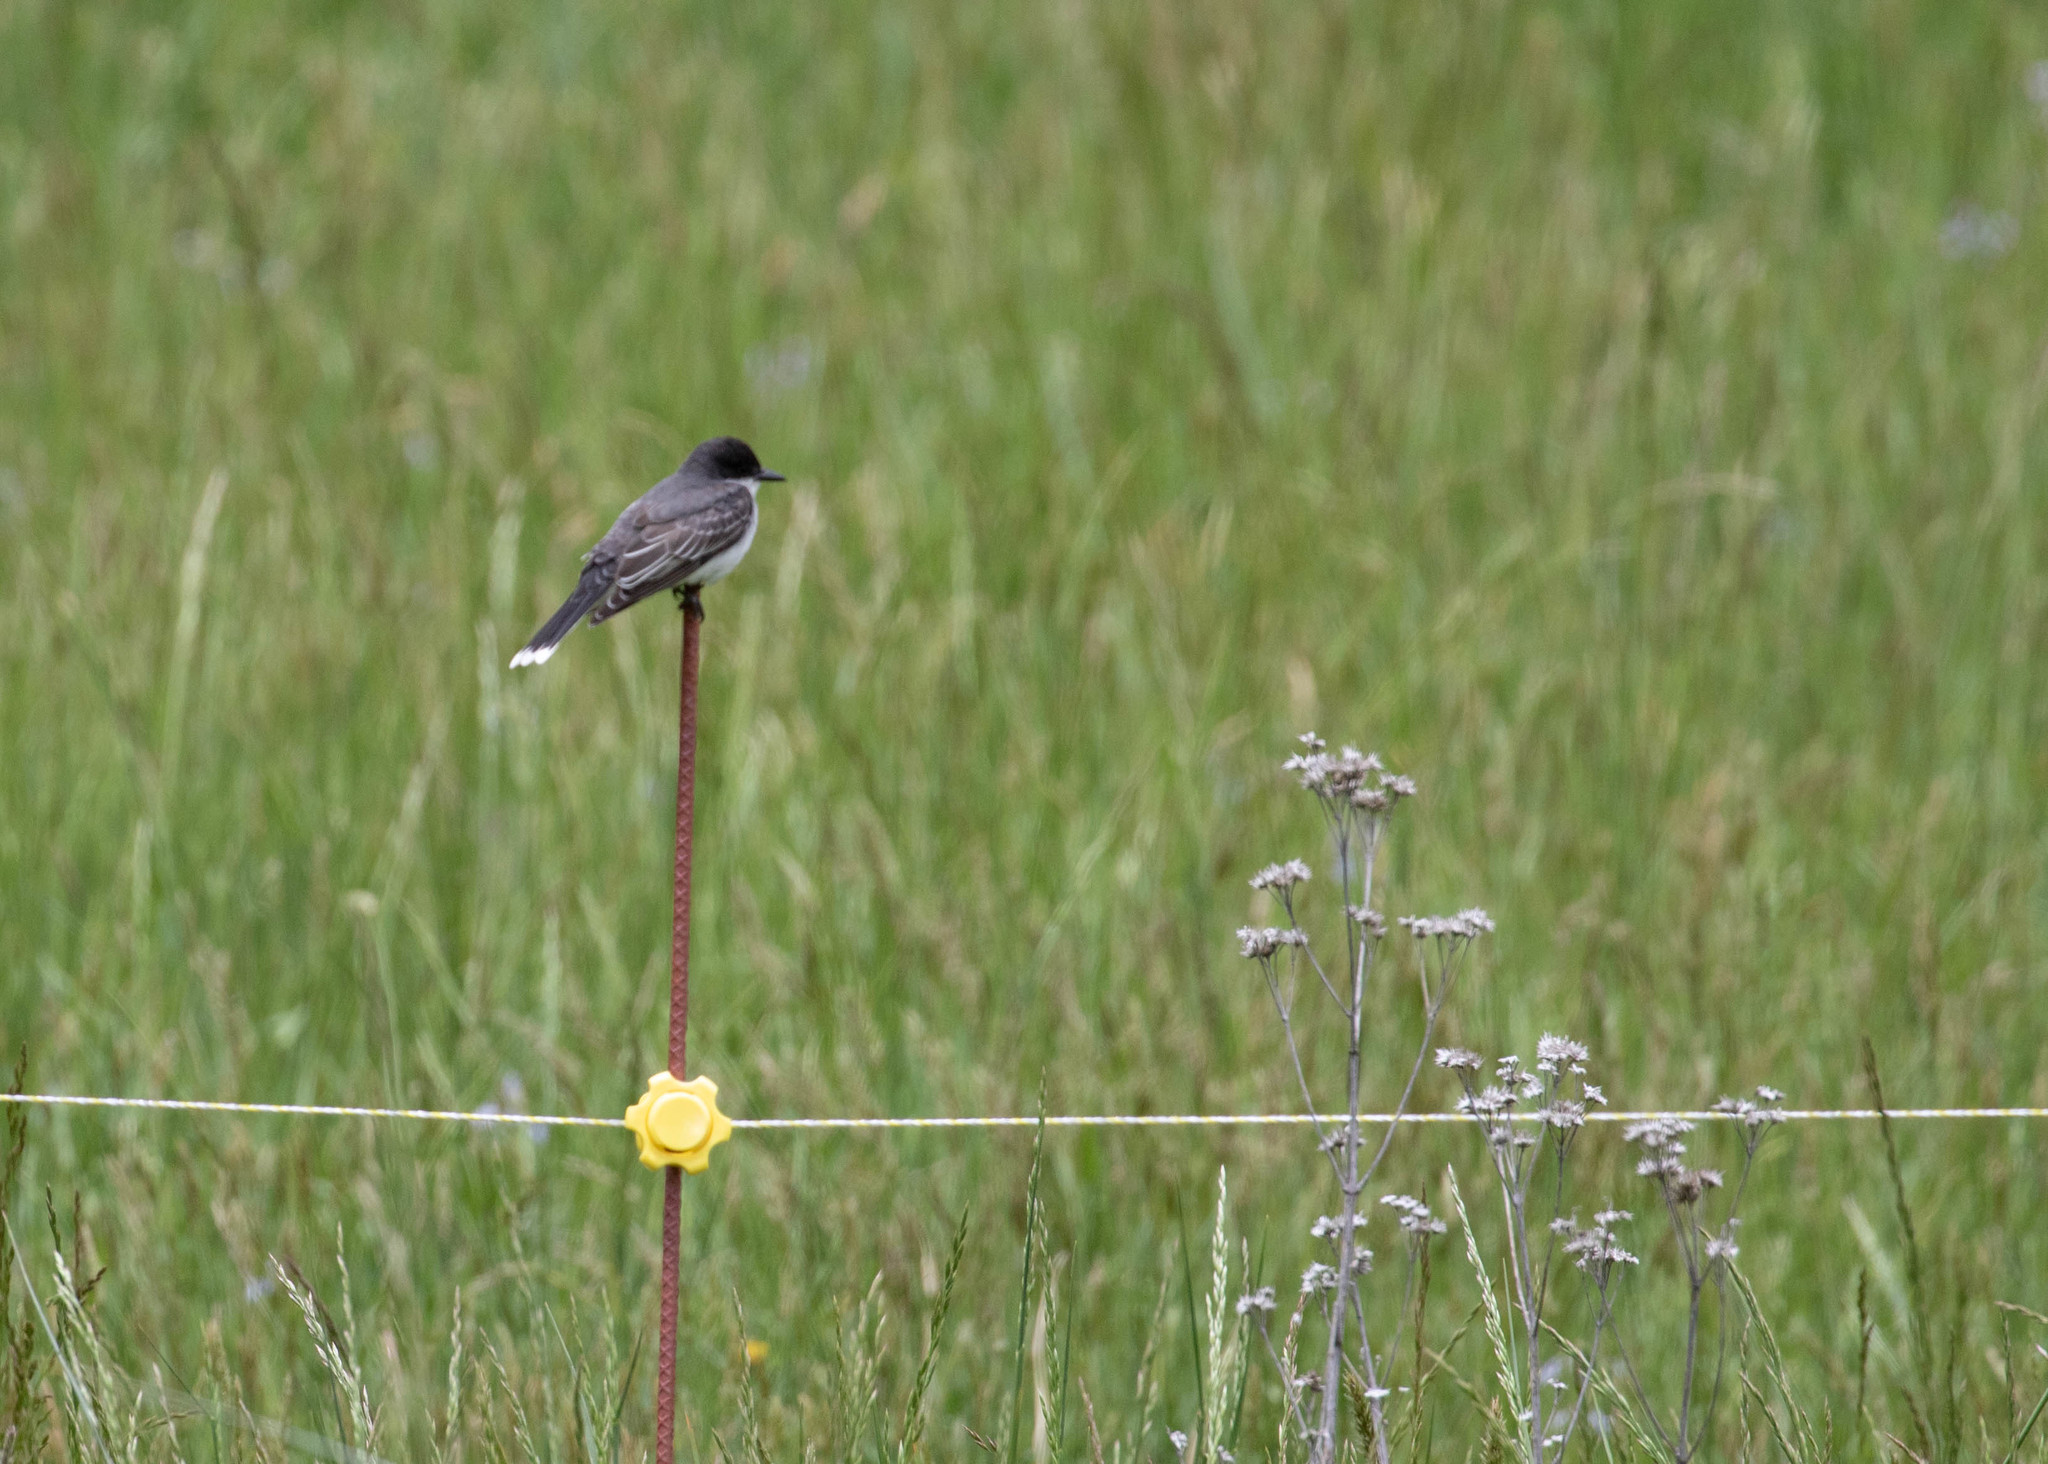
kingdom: Animalia
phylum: Chordata
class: Aves
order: Passeriformes
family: Tyrannidae
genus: Tyrannus
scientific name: Tyrannus tyrannus
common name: Eastern kingbird
